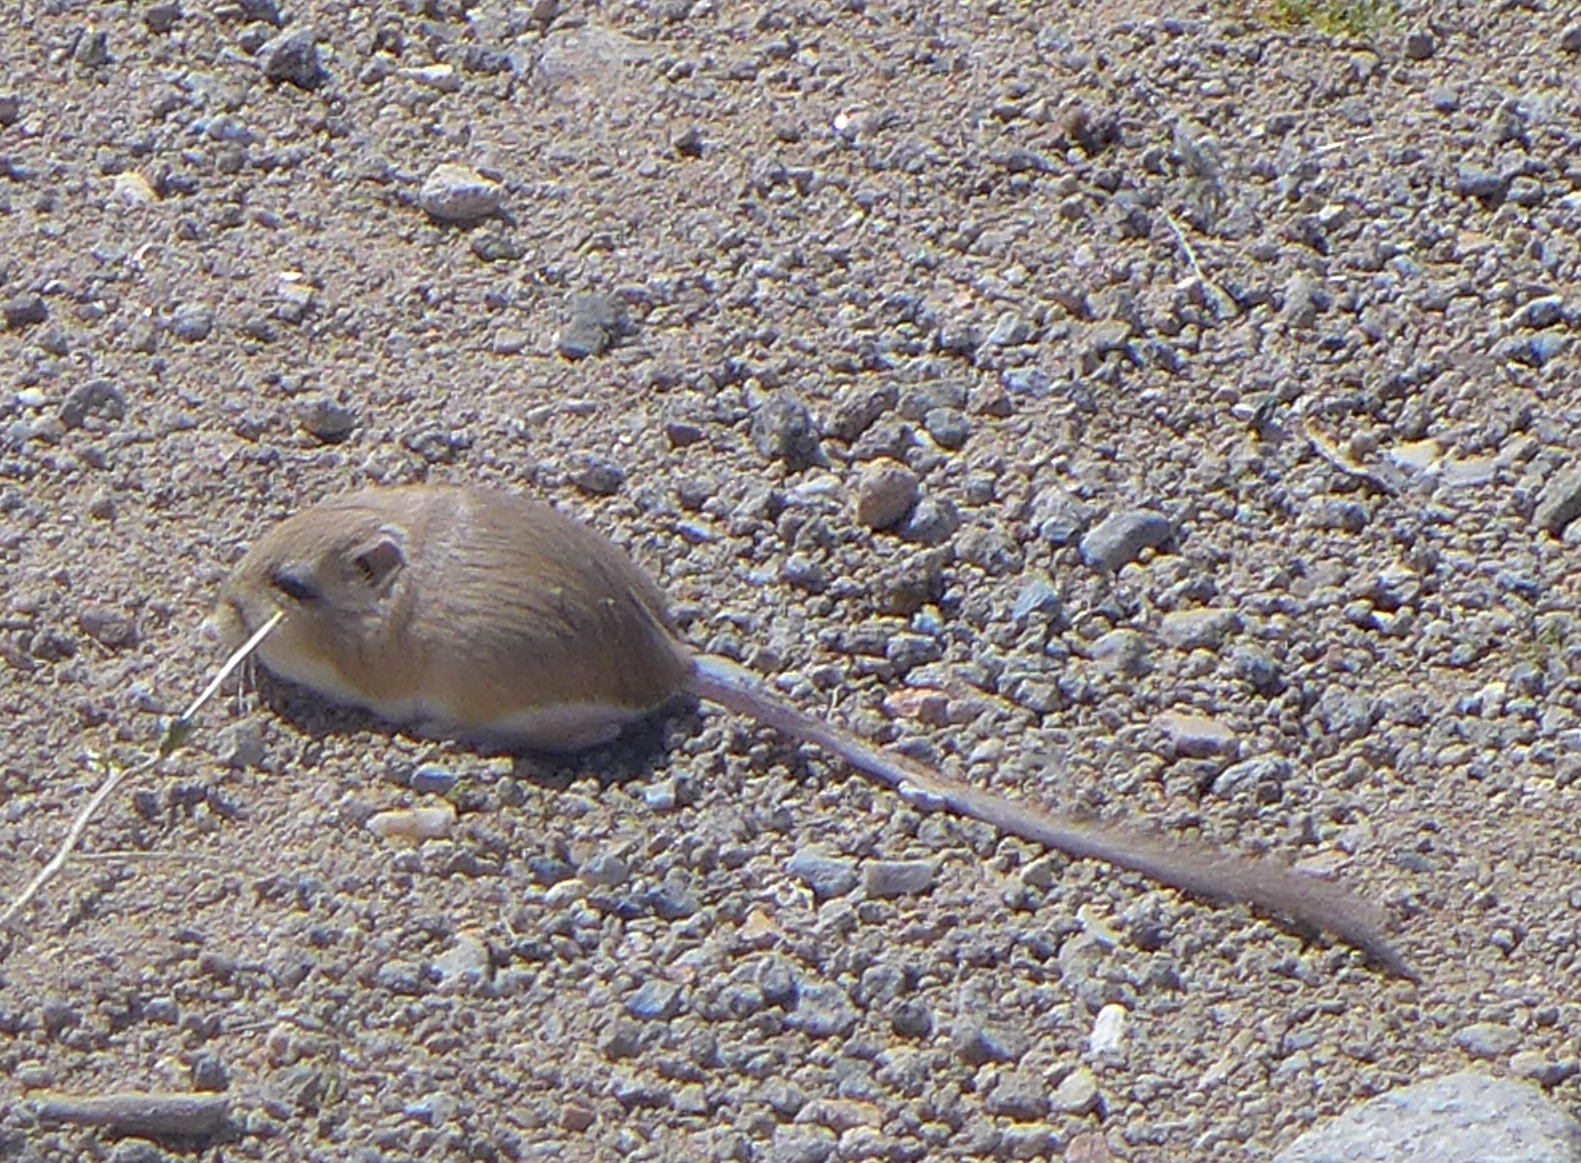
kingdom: Animalia
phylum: Chordata
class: Mammalia
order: Rodentia
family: Heteromyidae
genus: Dipodomys
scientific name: Dipodomys deserti
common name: Desert kangaroo rat
